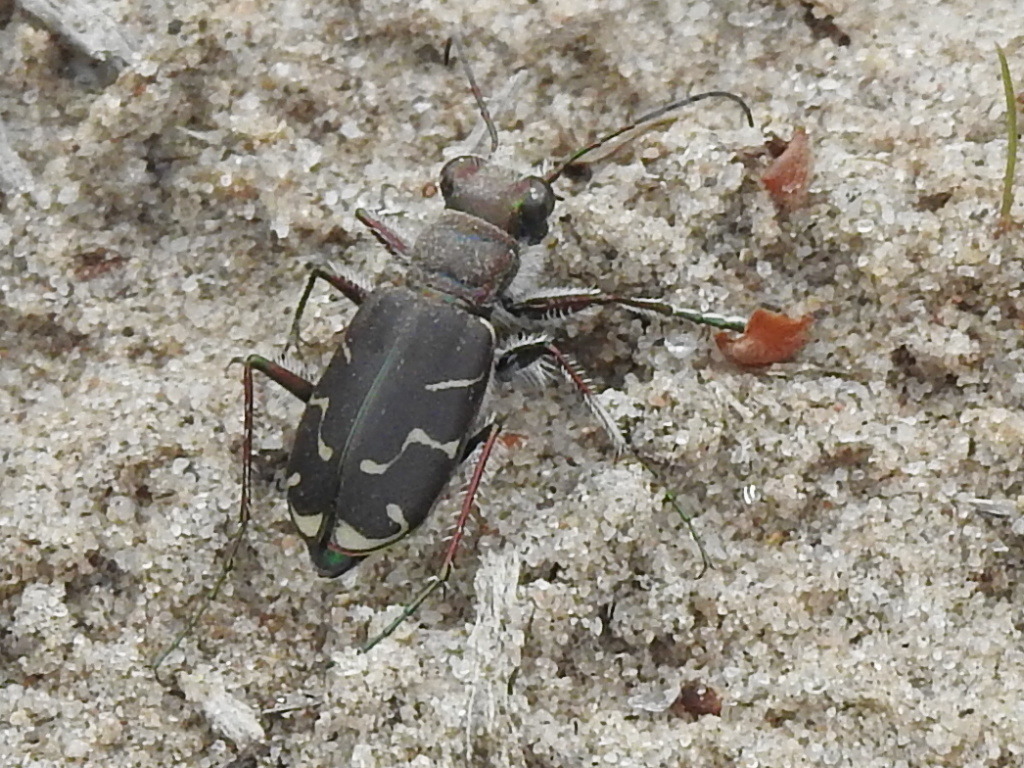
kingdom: Animalia
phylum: Arthropoda
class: Insecta
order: Coleoptera
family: Carabidae
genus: Cicindela
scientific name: Cicindela tranquebarica
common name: Oblique-lined tiger beetle
